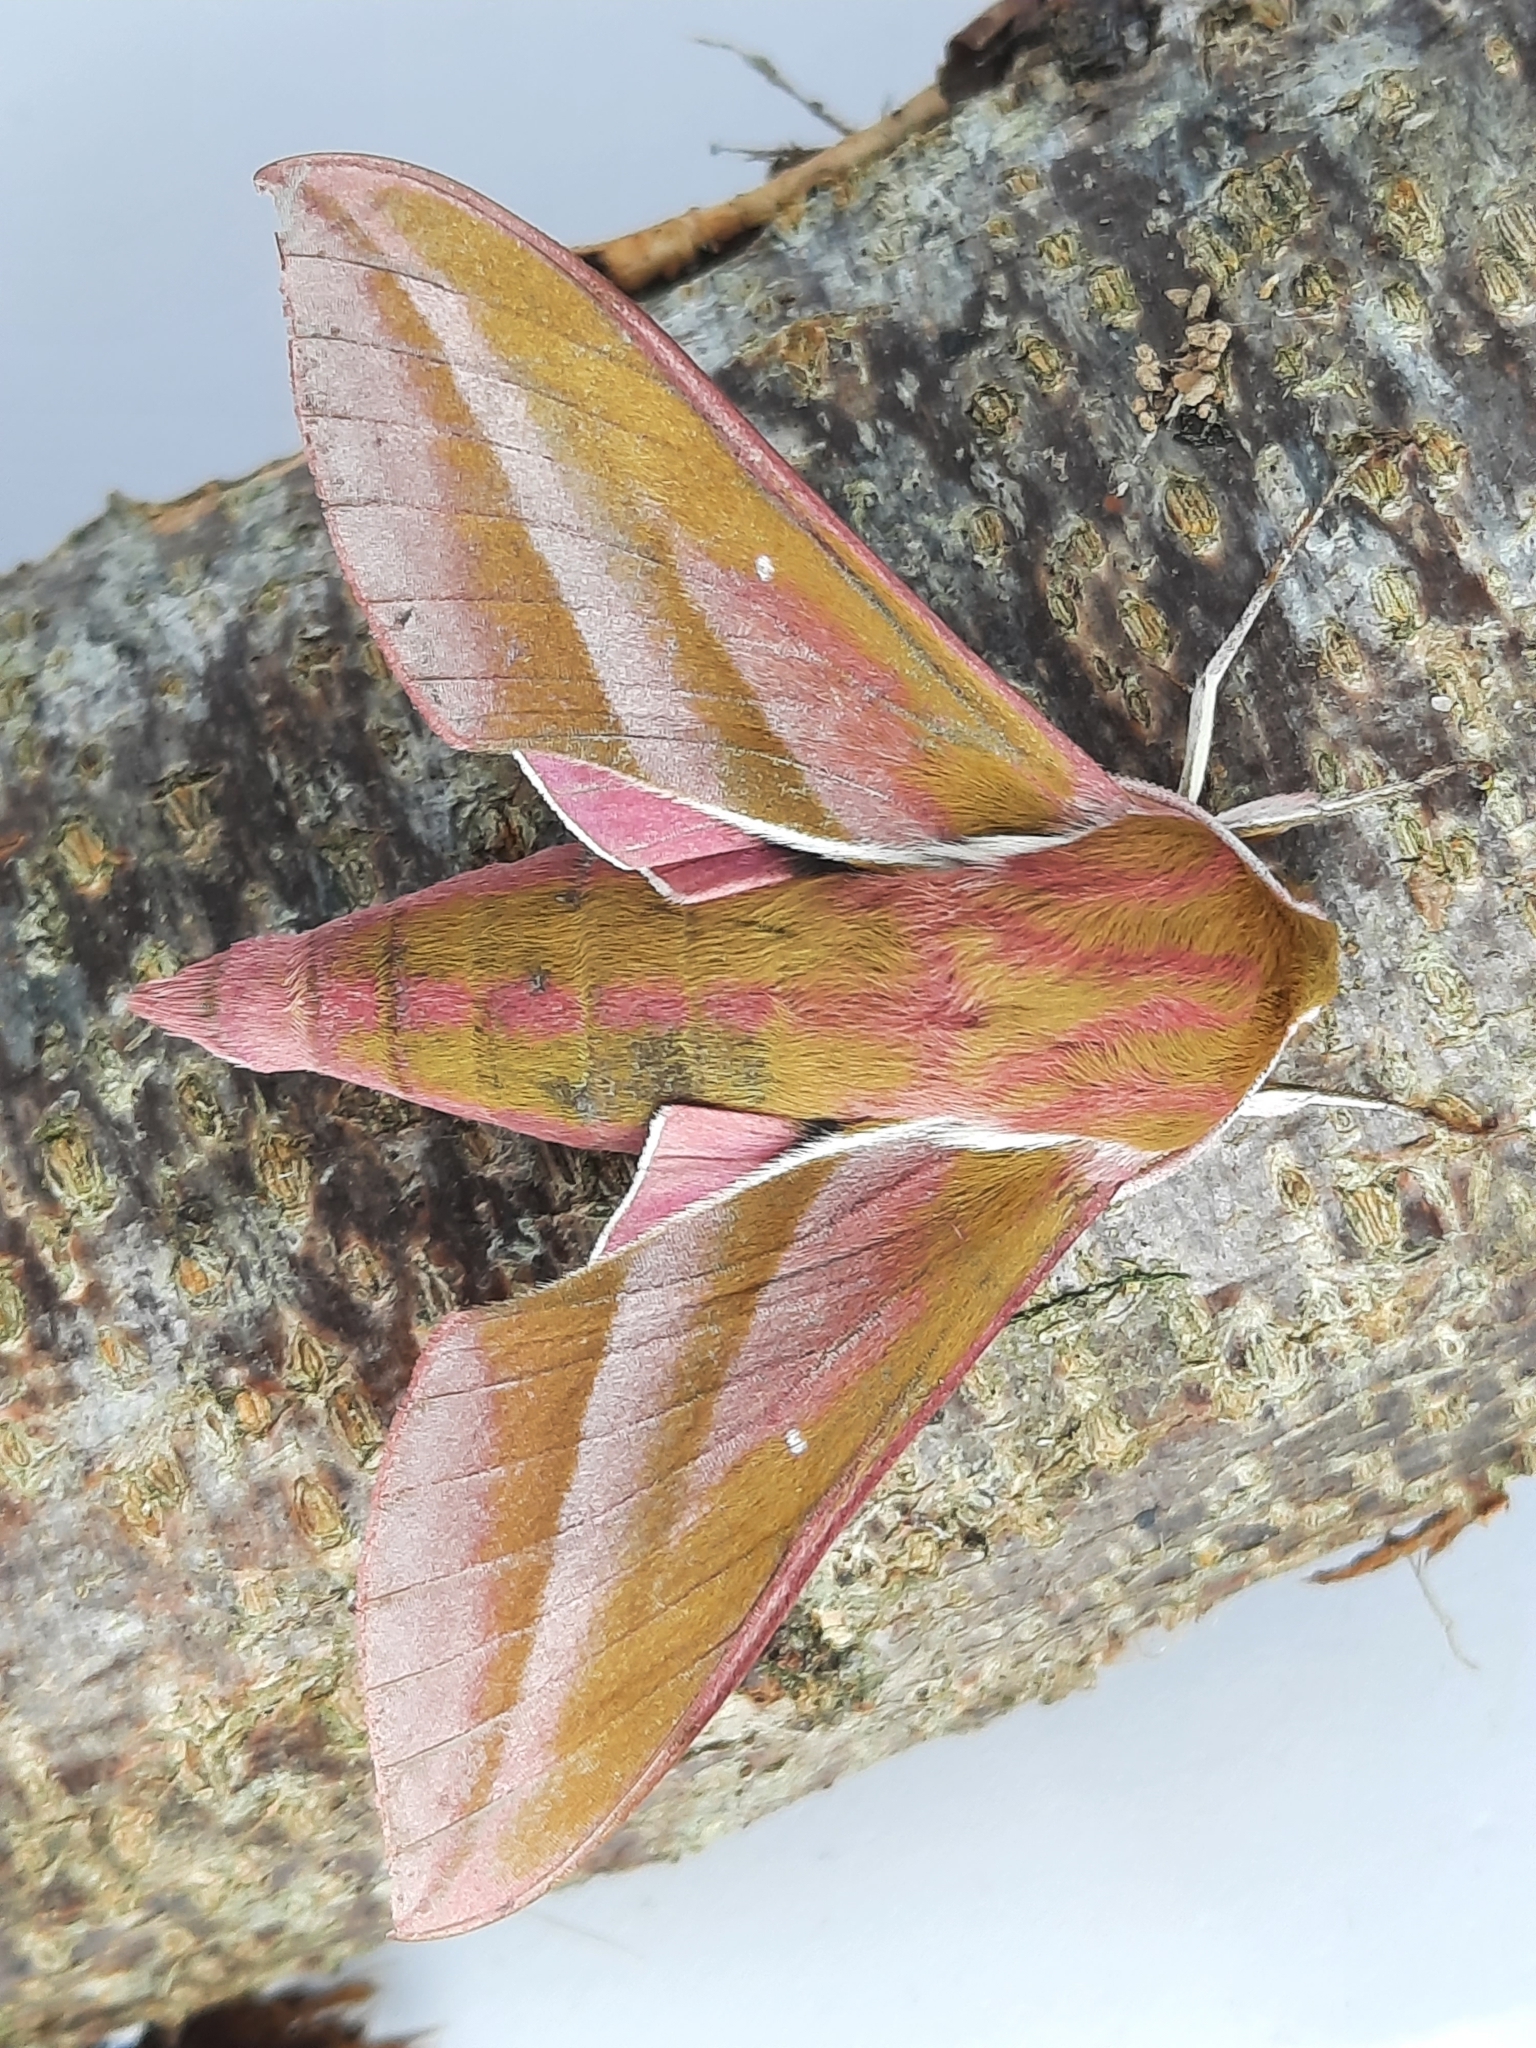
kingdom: Animalia
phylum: Arthropoda
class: Insecta
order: Lepidoptera
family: Sphingidae
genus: Deilephila
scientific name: Deilephila elpenor
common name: Elephant hawk-moth
